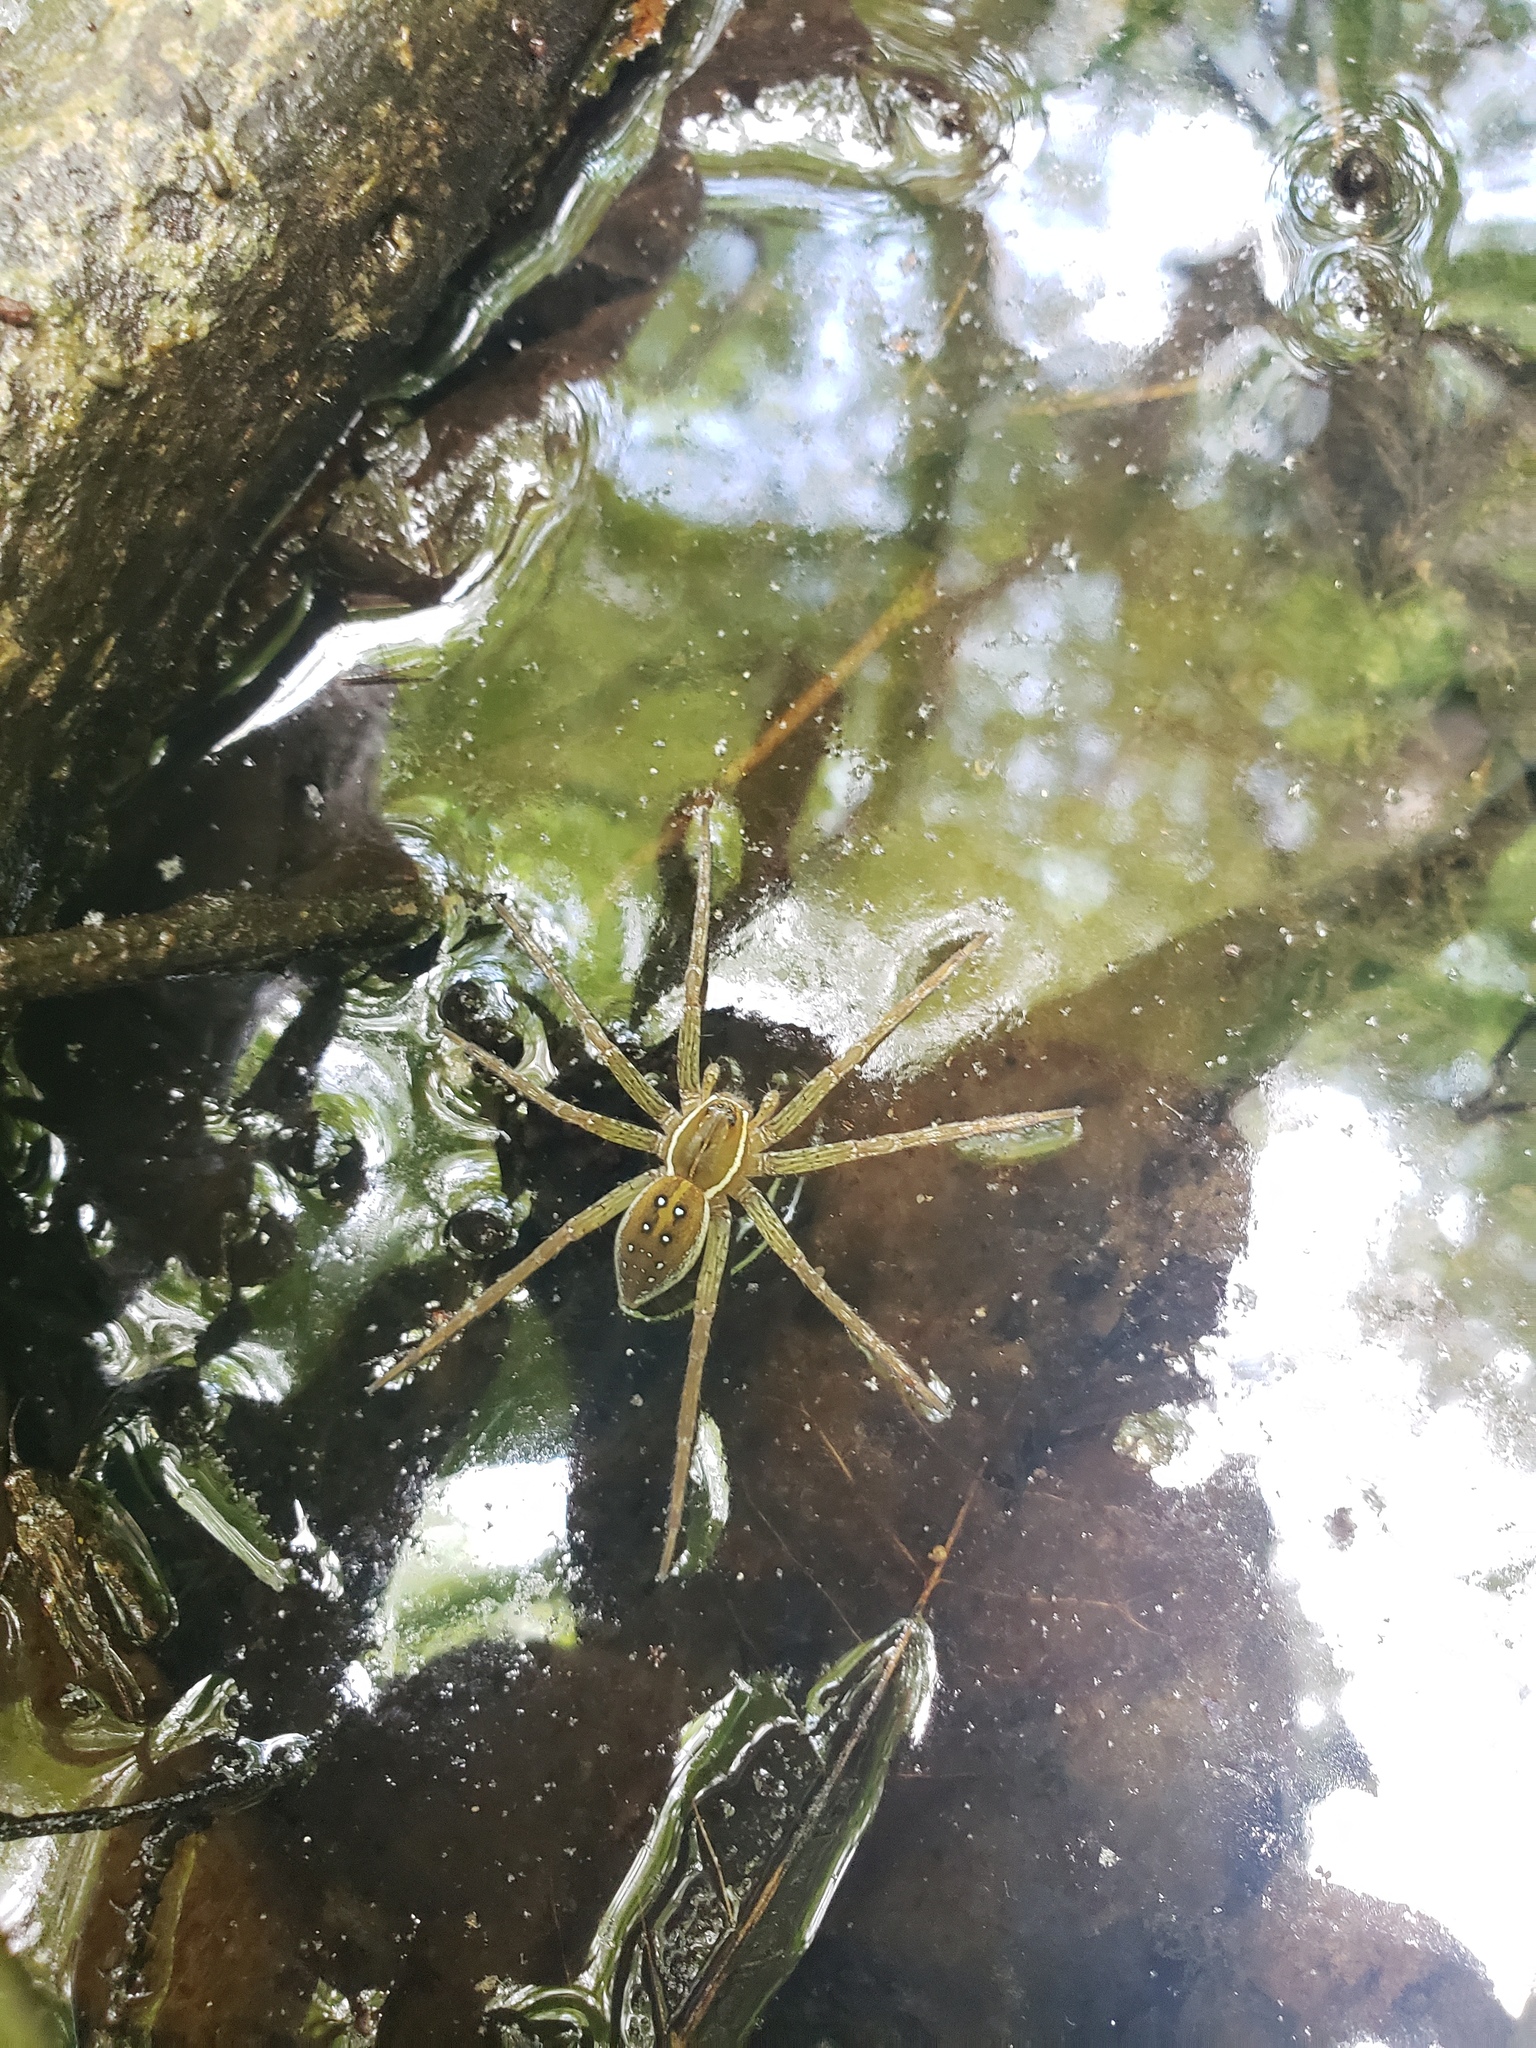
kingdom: Animalia
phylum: Arthropoda
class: Arachnida
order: Araneae
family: Pisauridae
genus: Dolomedes
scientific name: Dolomedes triton
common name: Six-spotted fishing spider
